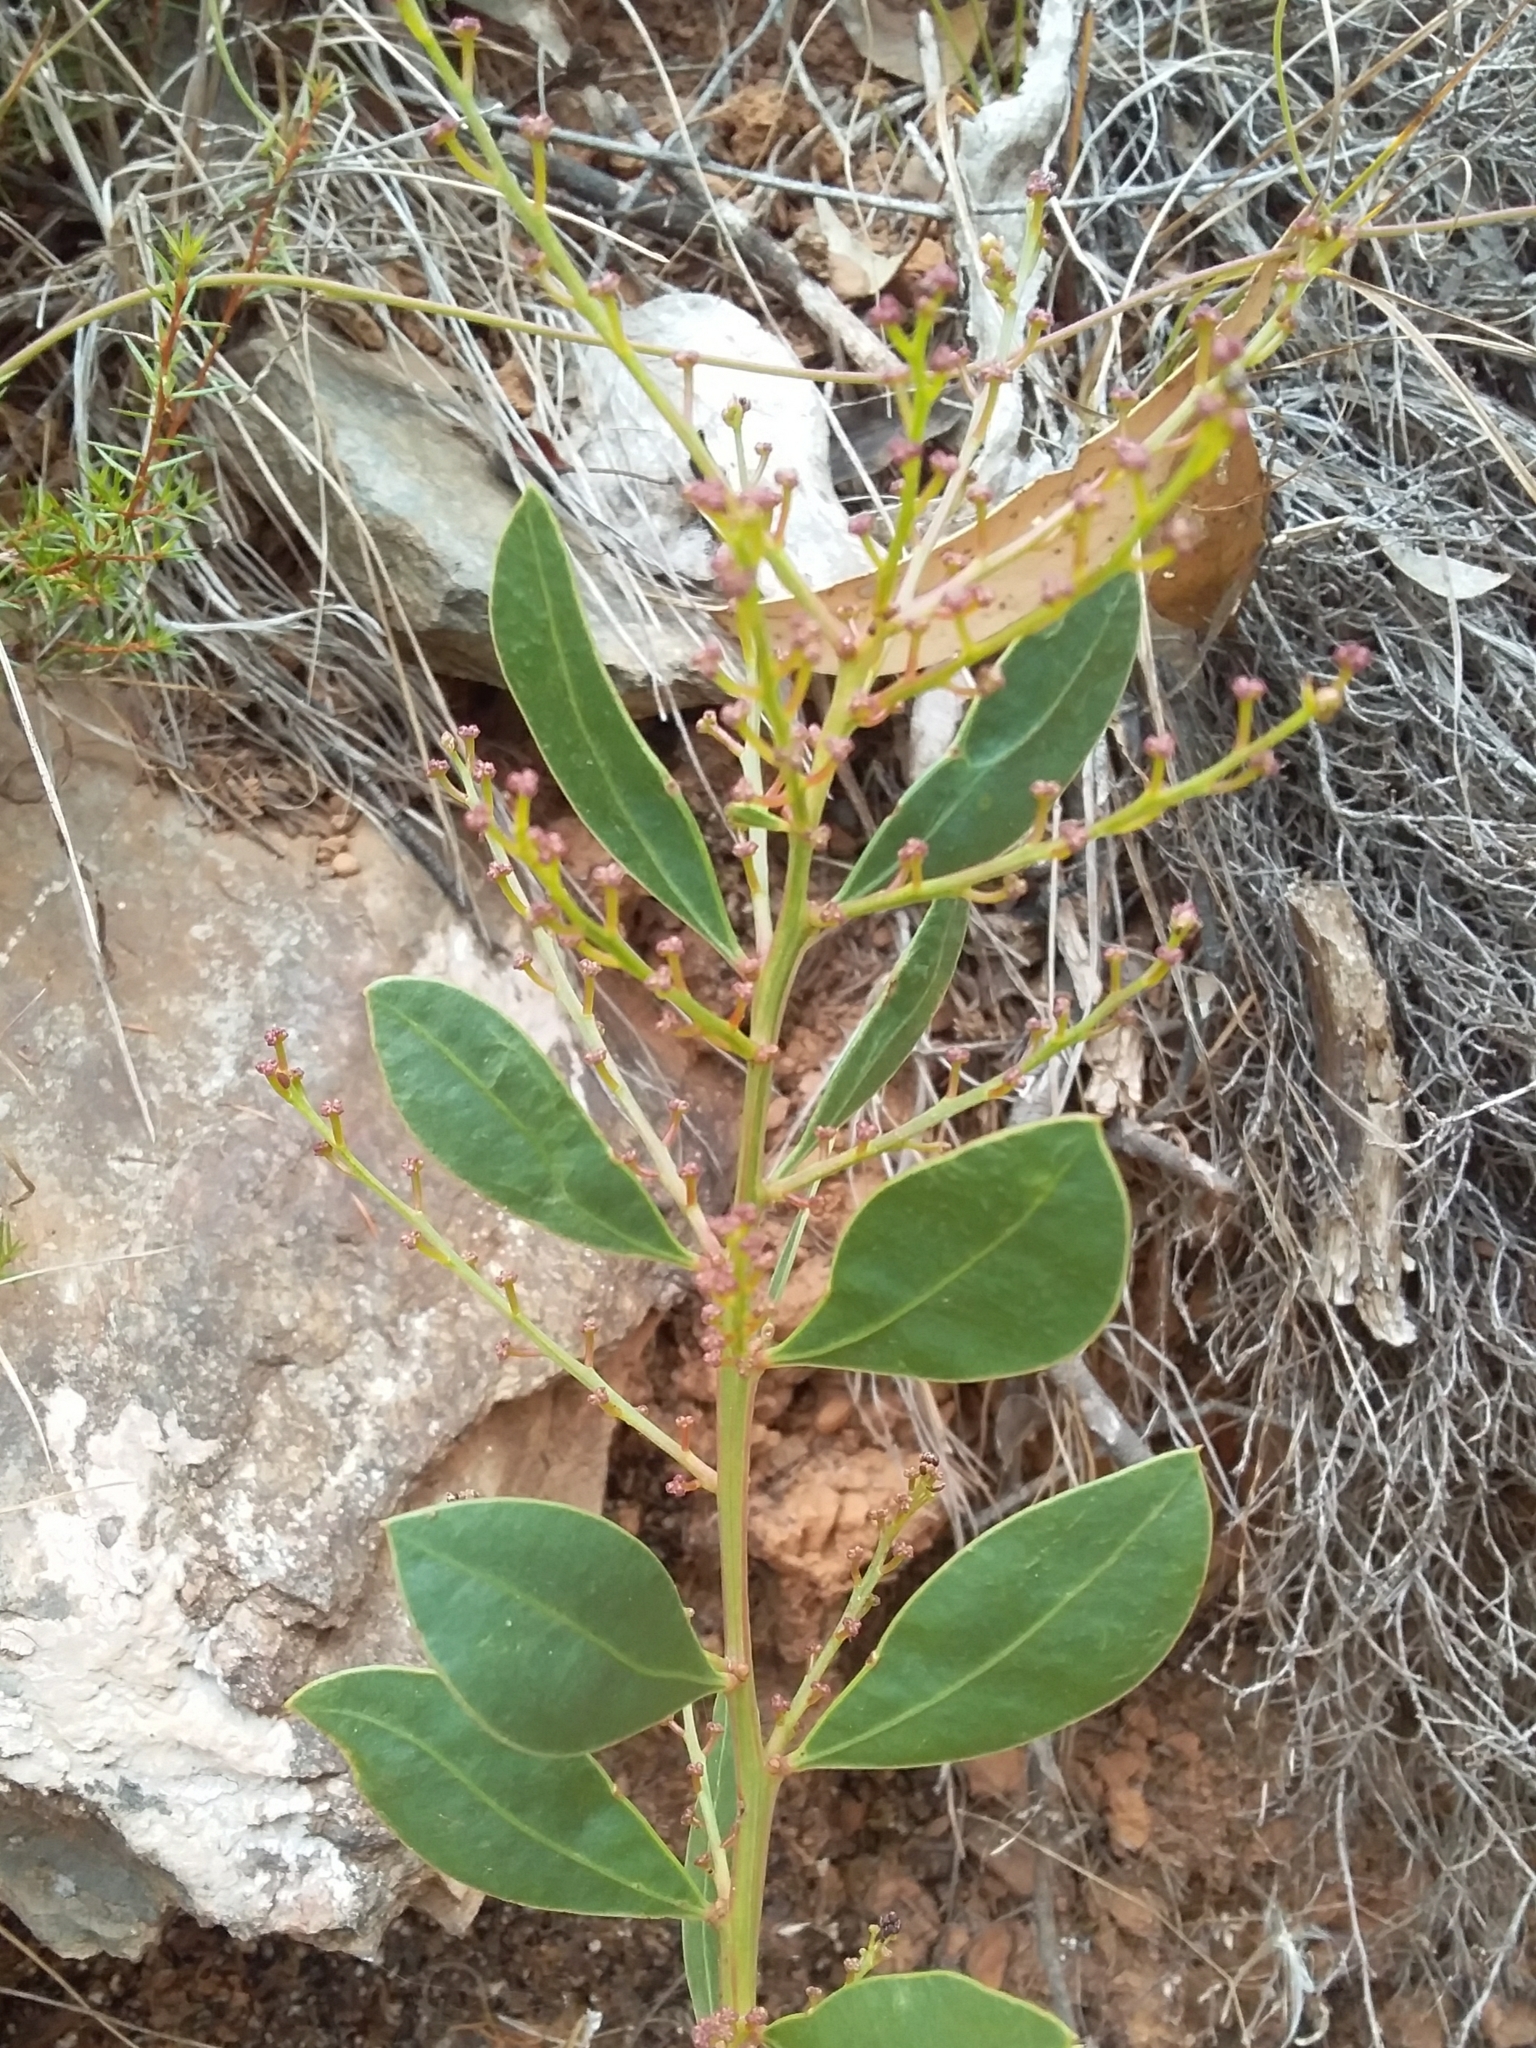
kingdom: Plantae
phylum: Tracheophyta
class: Magnoliopsida
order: Fabales
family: Fabaceae
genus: Acacia
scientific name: Acacia myrtifolia
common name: Myrtle wattle
